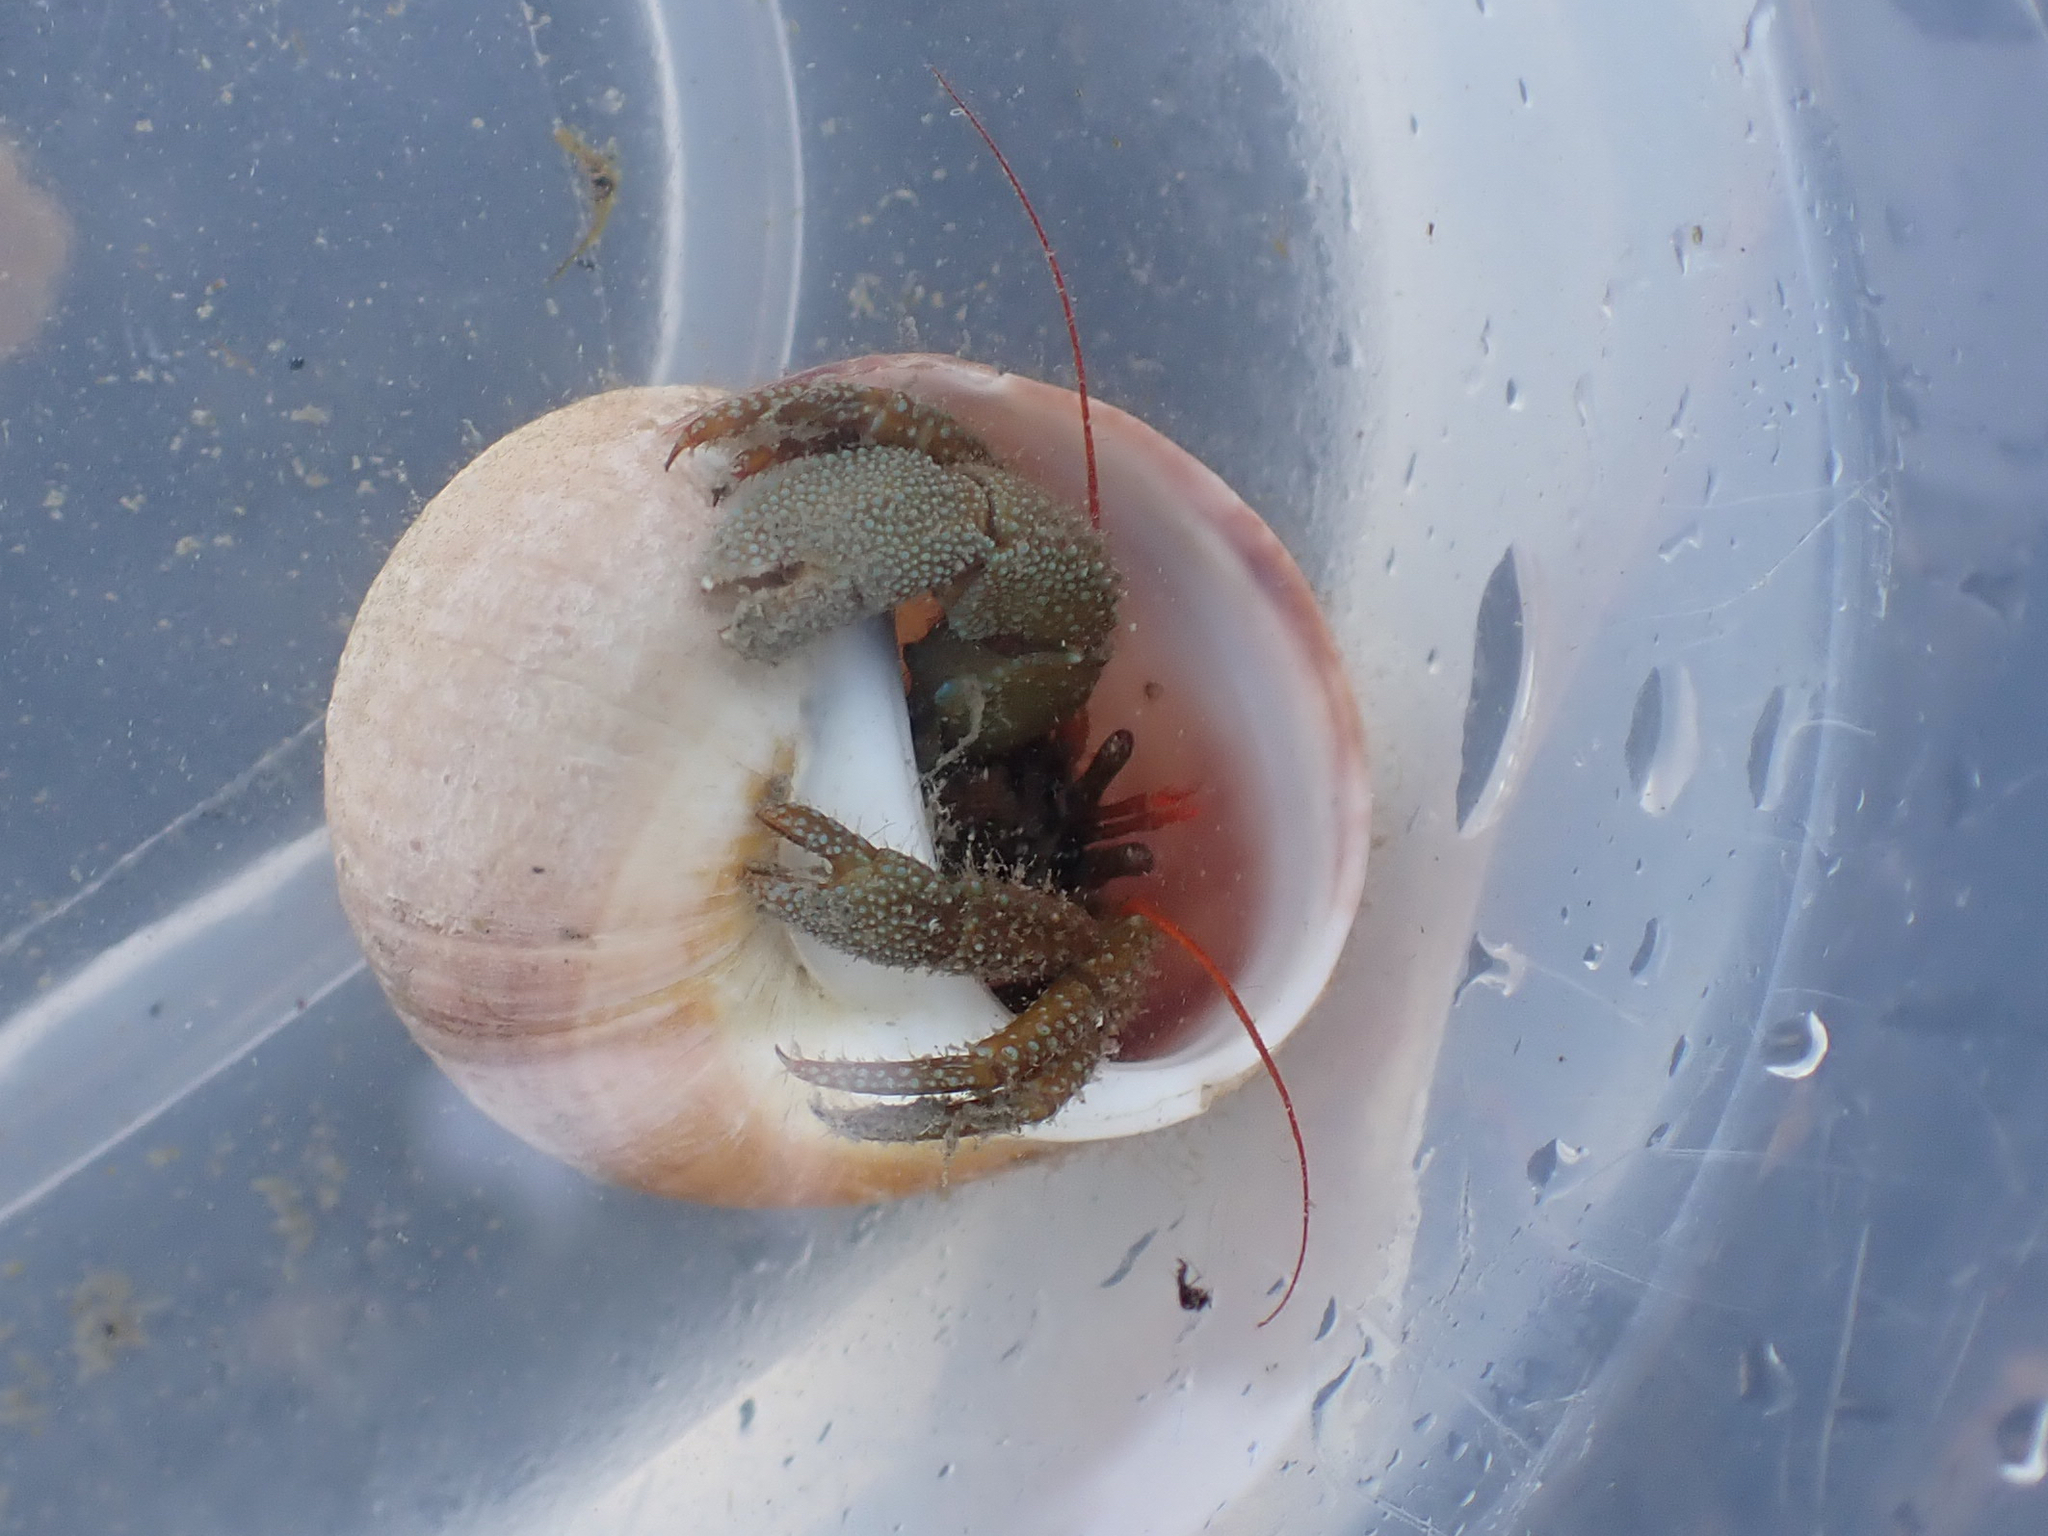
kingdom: Animalia
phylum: Arthropoda
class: Malacostraca
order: Decapoda
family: Paguridae
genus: Pagurus
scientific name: Pagurus granosimanus
